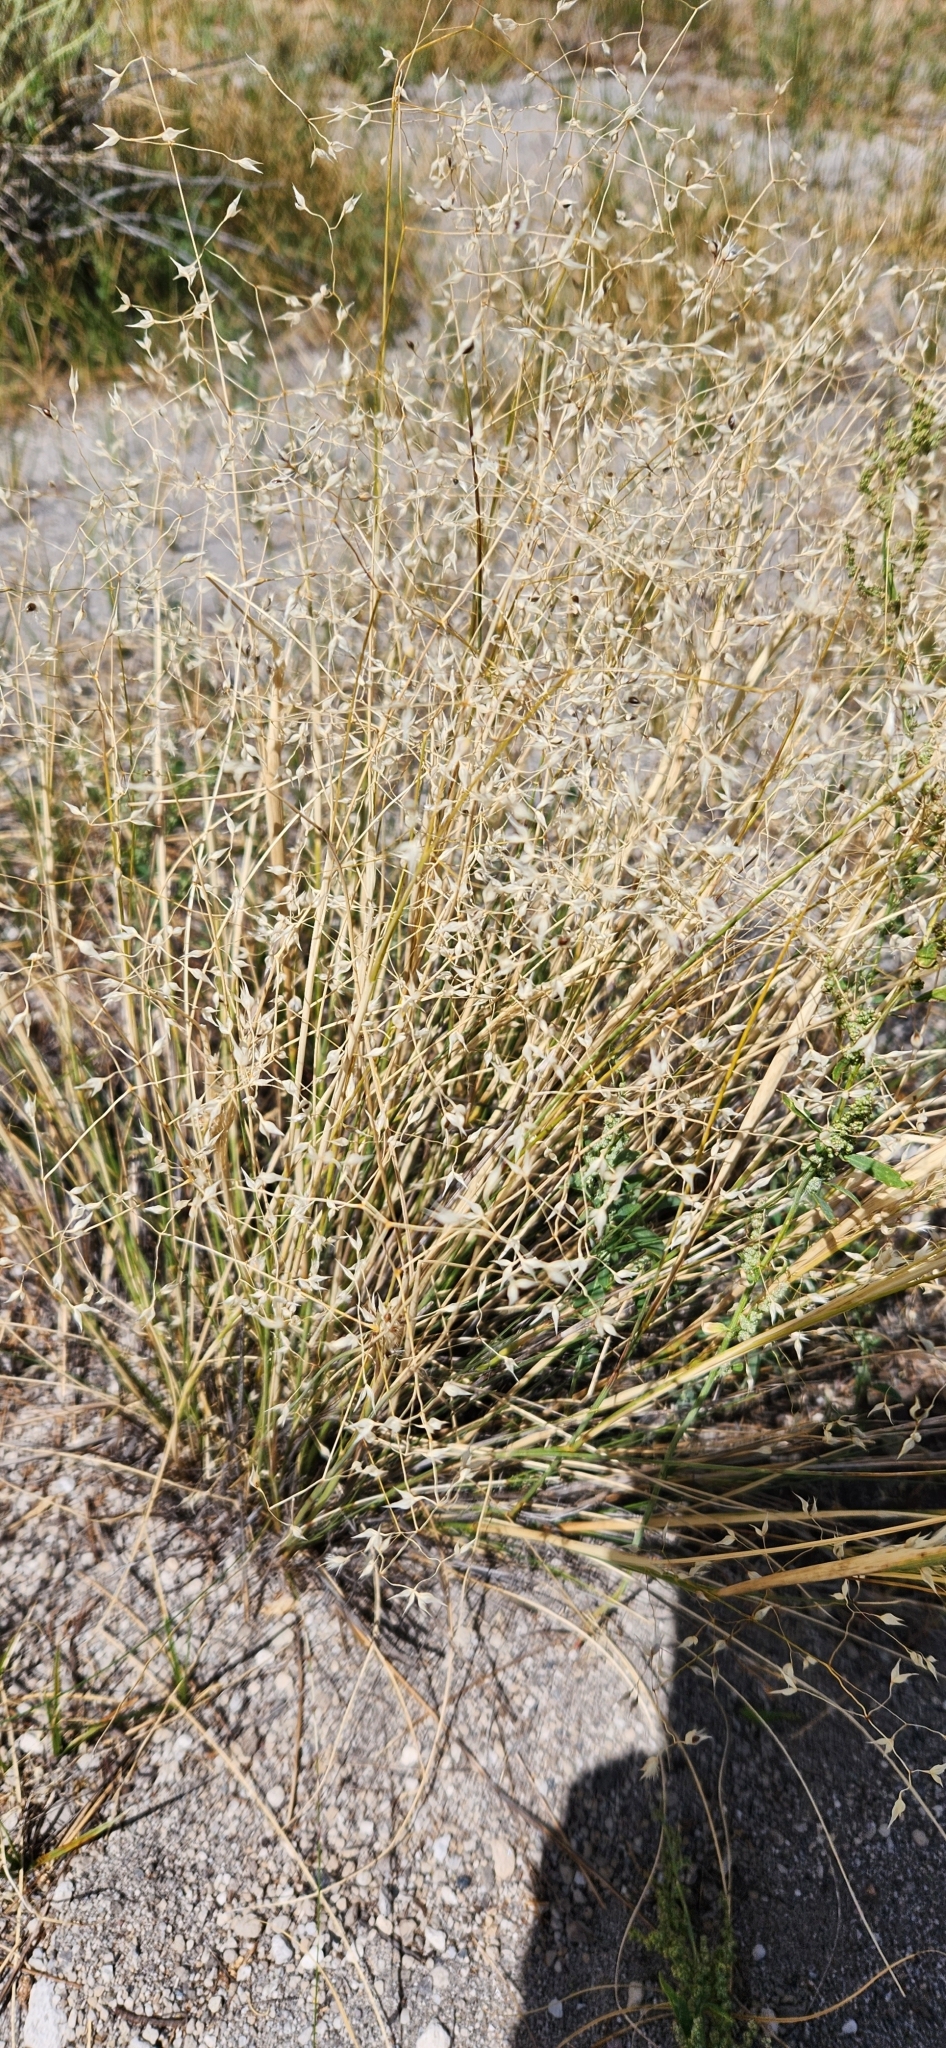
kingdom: Plantae
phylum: Tracheophyta
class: Liliopsida
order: Poales
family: Poaceae
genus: Eriocoma
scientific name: Eriocoma hymenoides
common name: Indian mountain ricegrass
